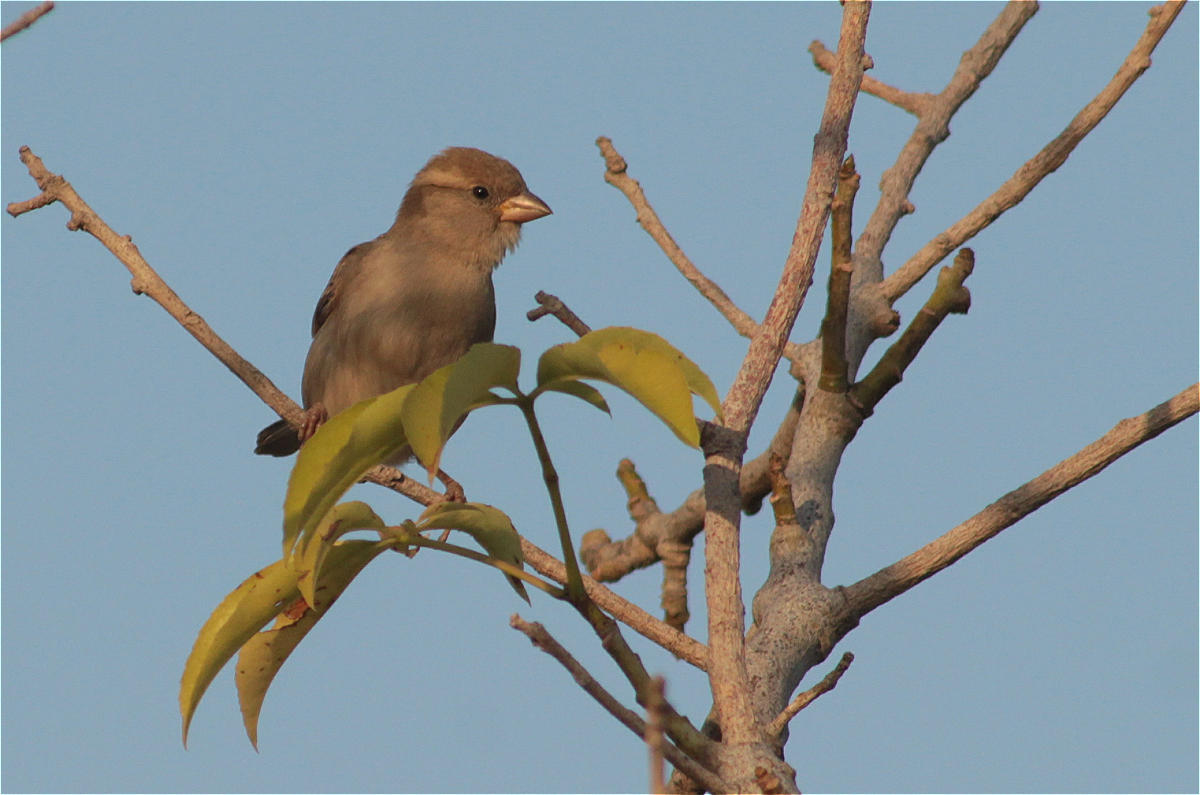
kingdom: Animalia
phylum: Chordata
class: Aves
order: Passeriformes
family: Passeridae
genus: Passer
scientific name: Passer domesticus
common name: House sparrow
